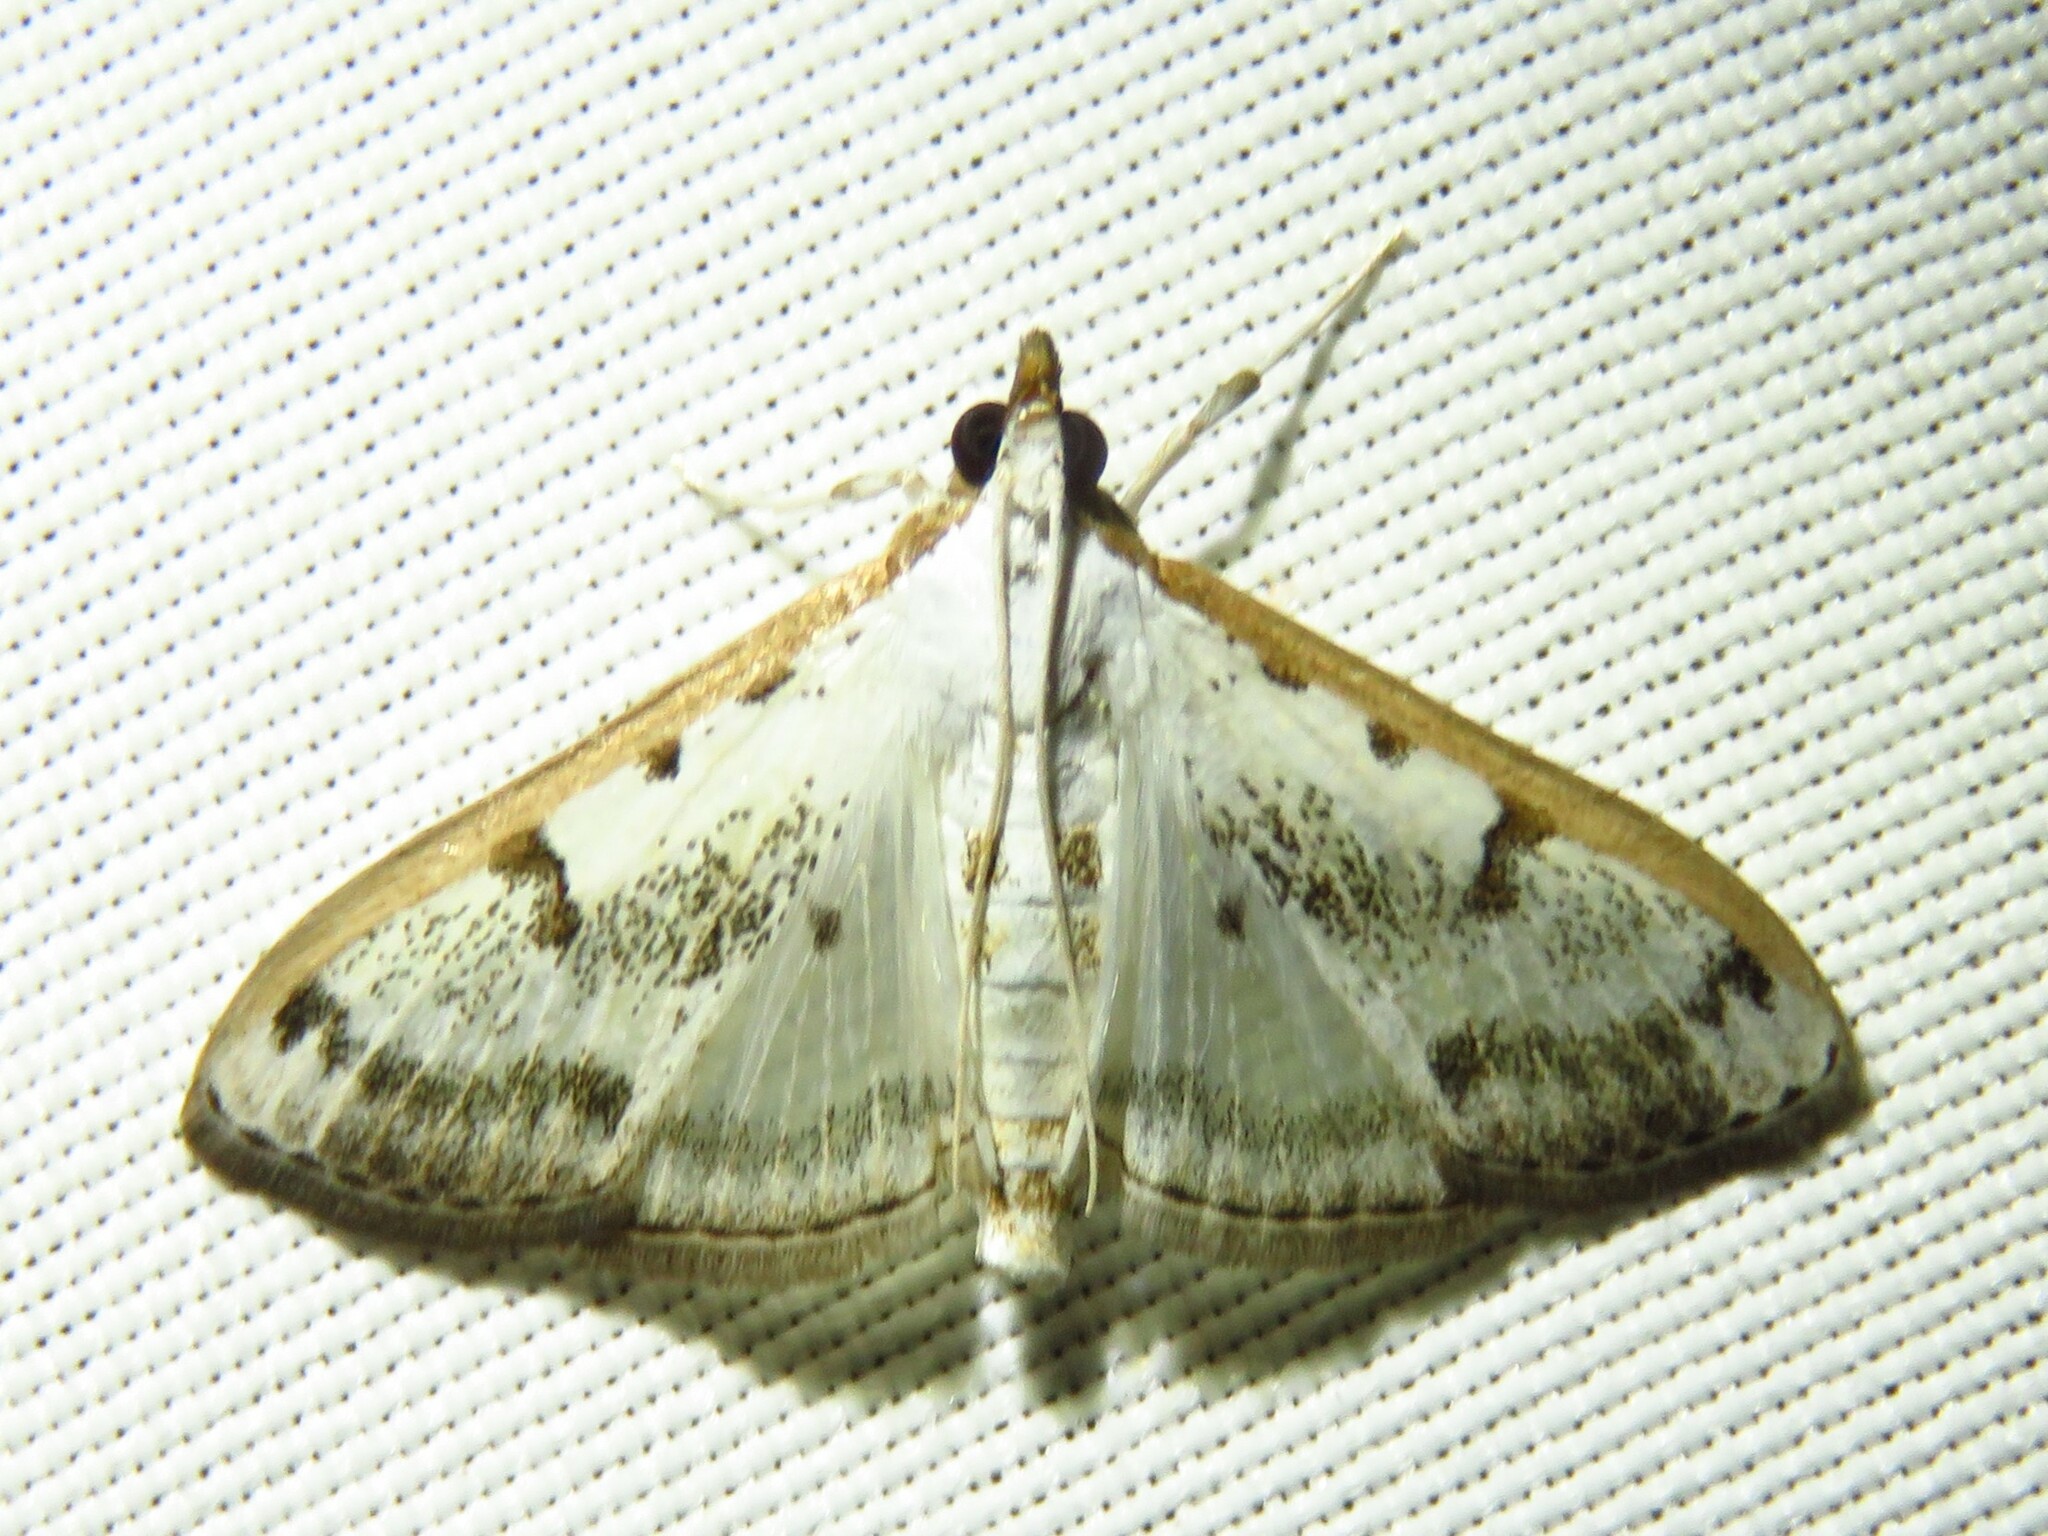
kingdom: Animalia
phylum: Arthropoda
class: Insecta
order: Lepidoptera
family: Crambidae
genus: Palpita
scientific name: Palpita gracilalis
